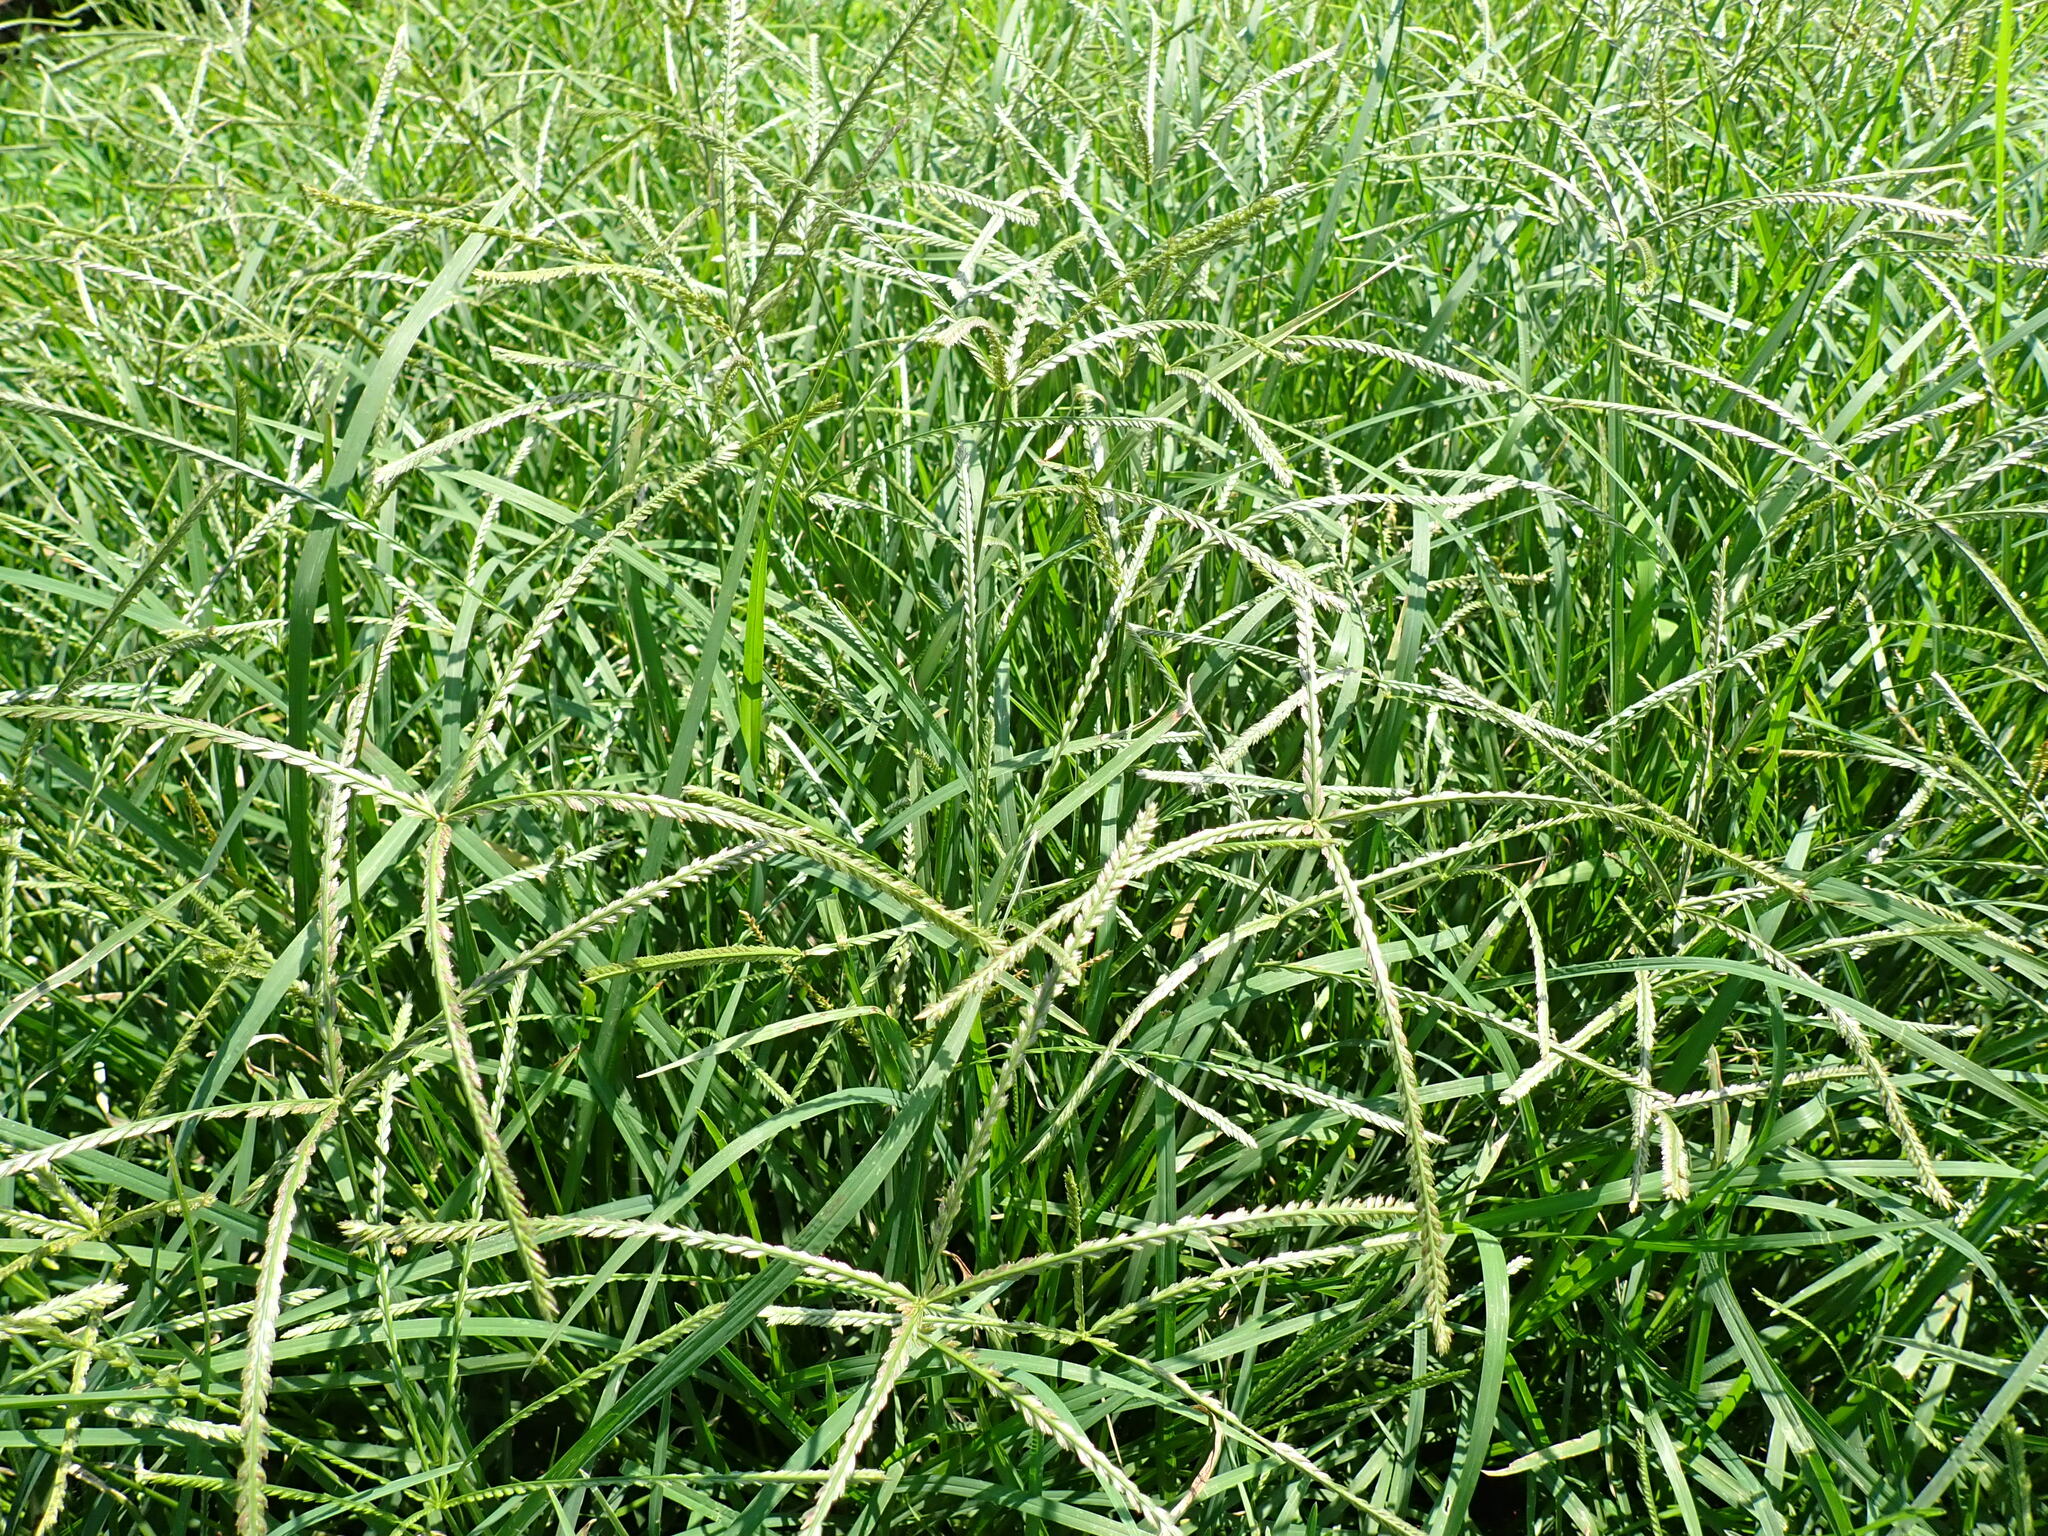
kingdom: Plantae
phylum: Tracheophyta
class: Liliopsida
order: Poales
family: Poaceae
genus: Eleusine
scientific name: Eleusine indica
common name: Yard-grass
